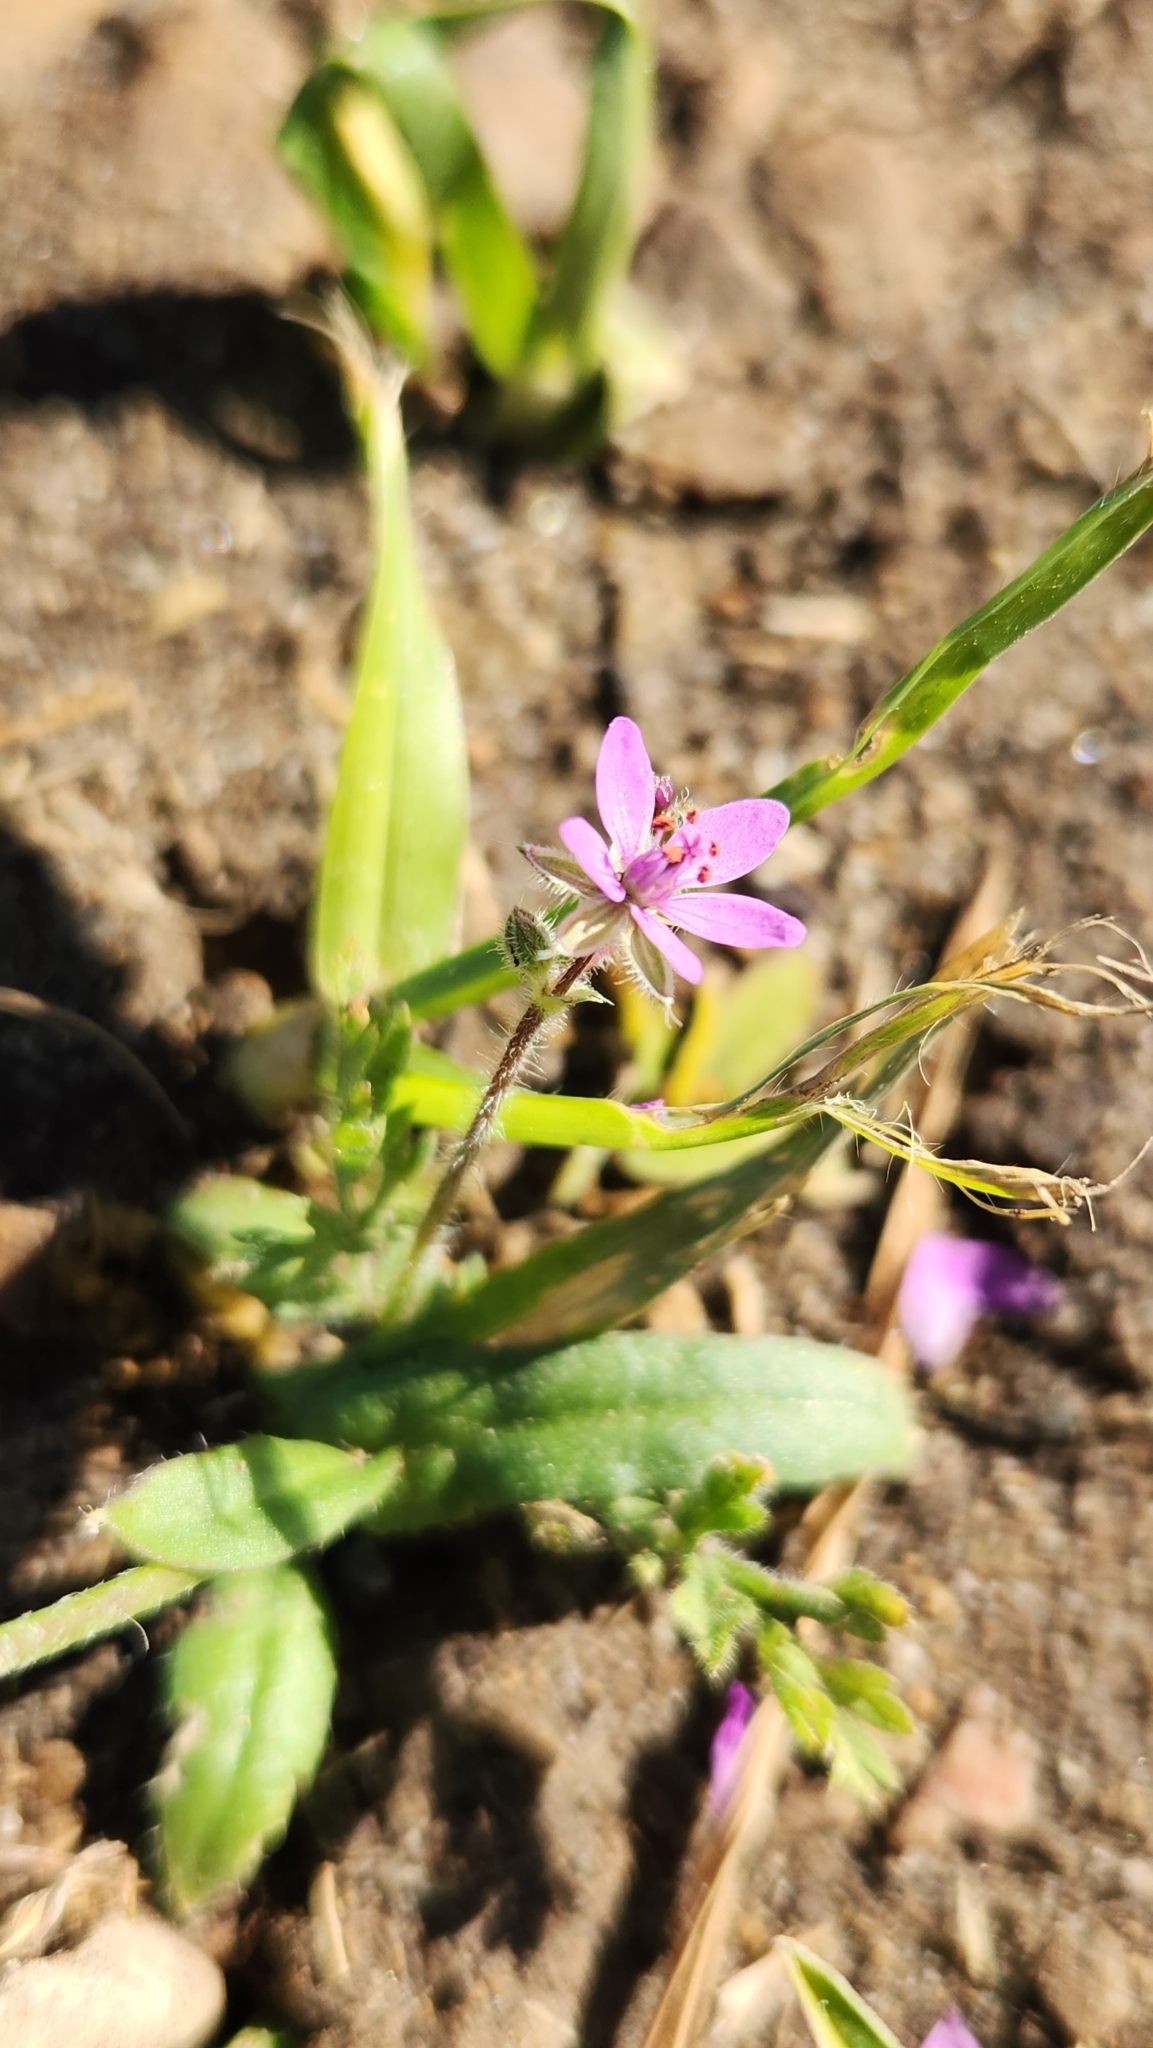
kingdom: Plantae
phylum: Tracheophyta
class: Magnoliopsida
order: Geraniales
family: Geraniaceae
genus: Erodium
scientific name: Erodium cicutarium
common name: Common stork's-bill
